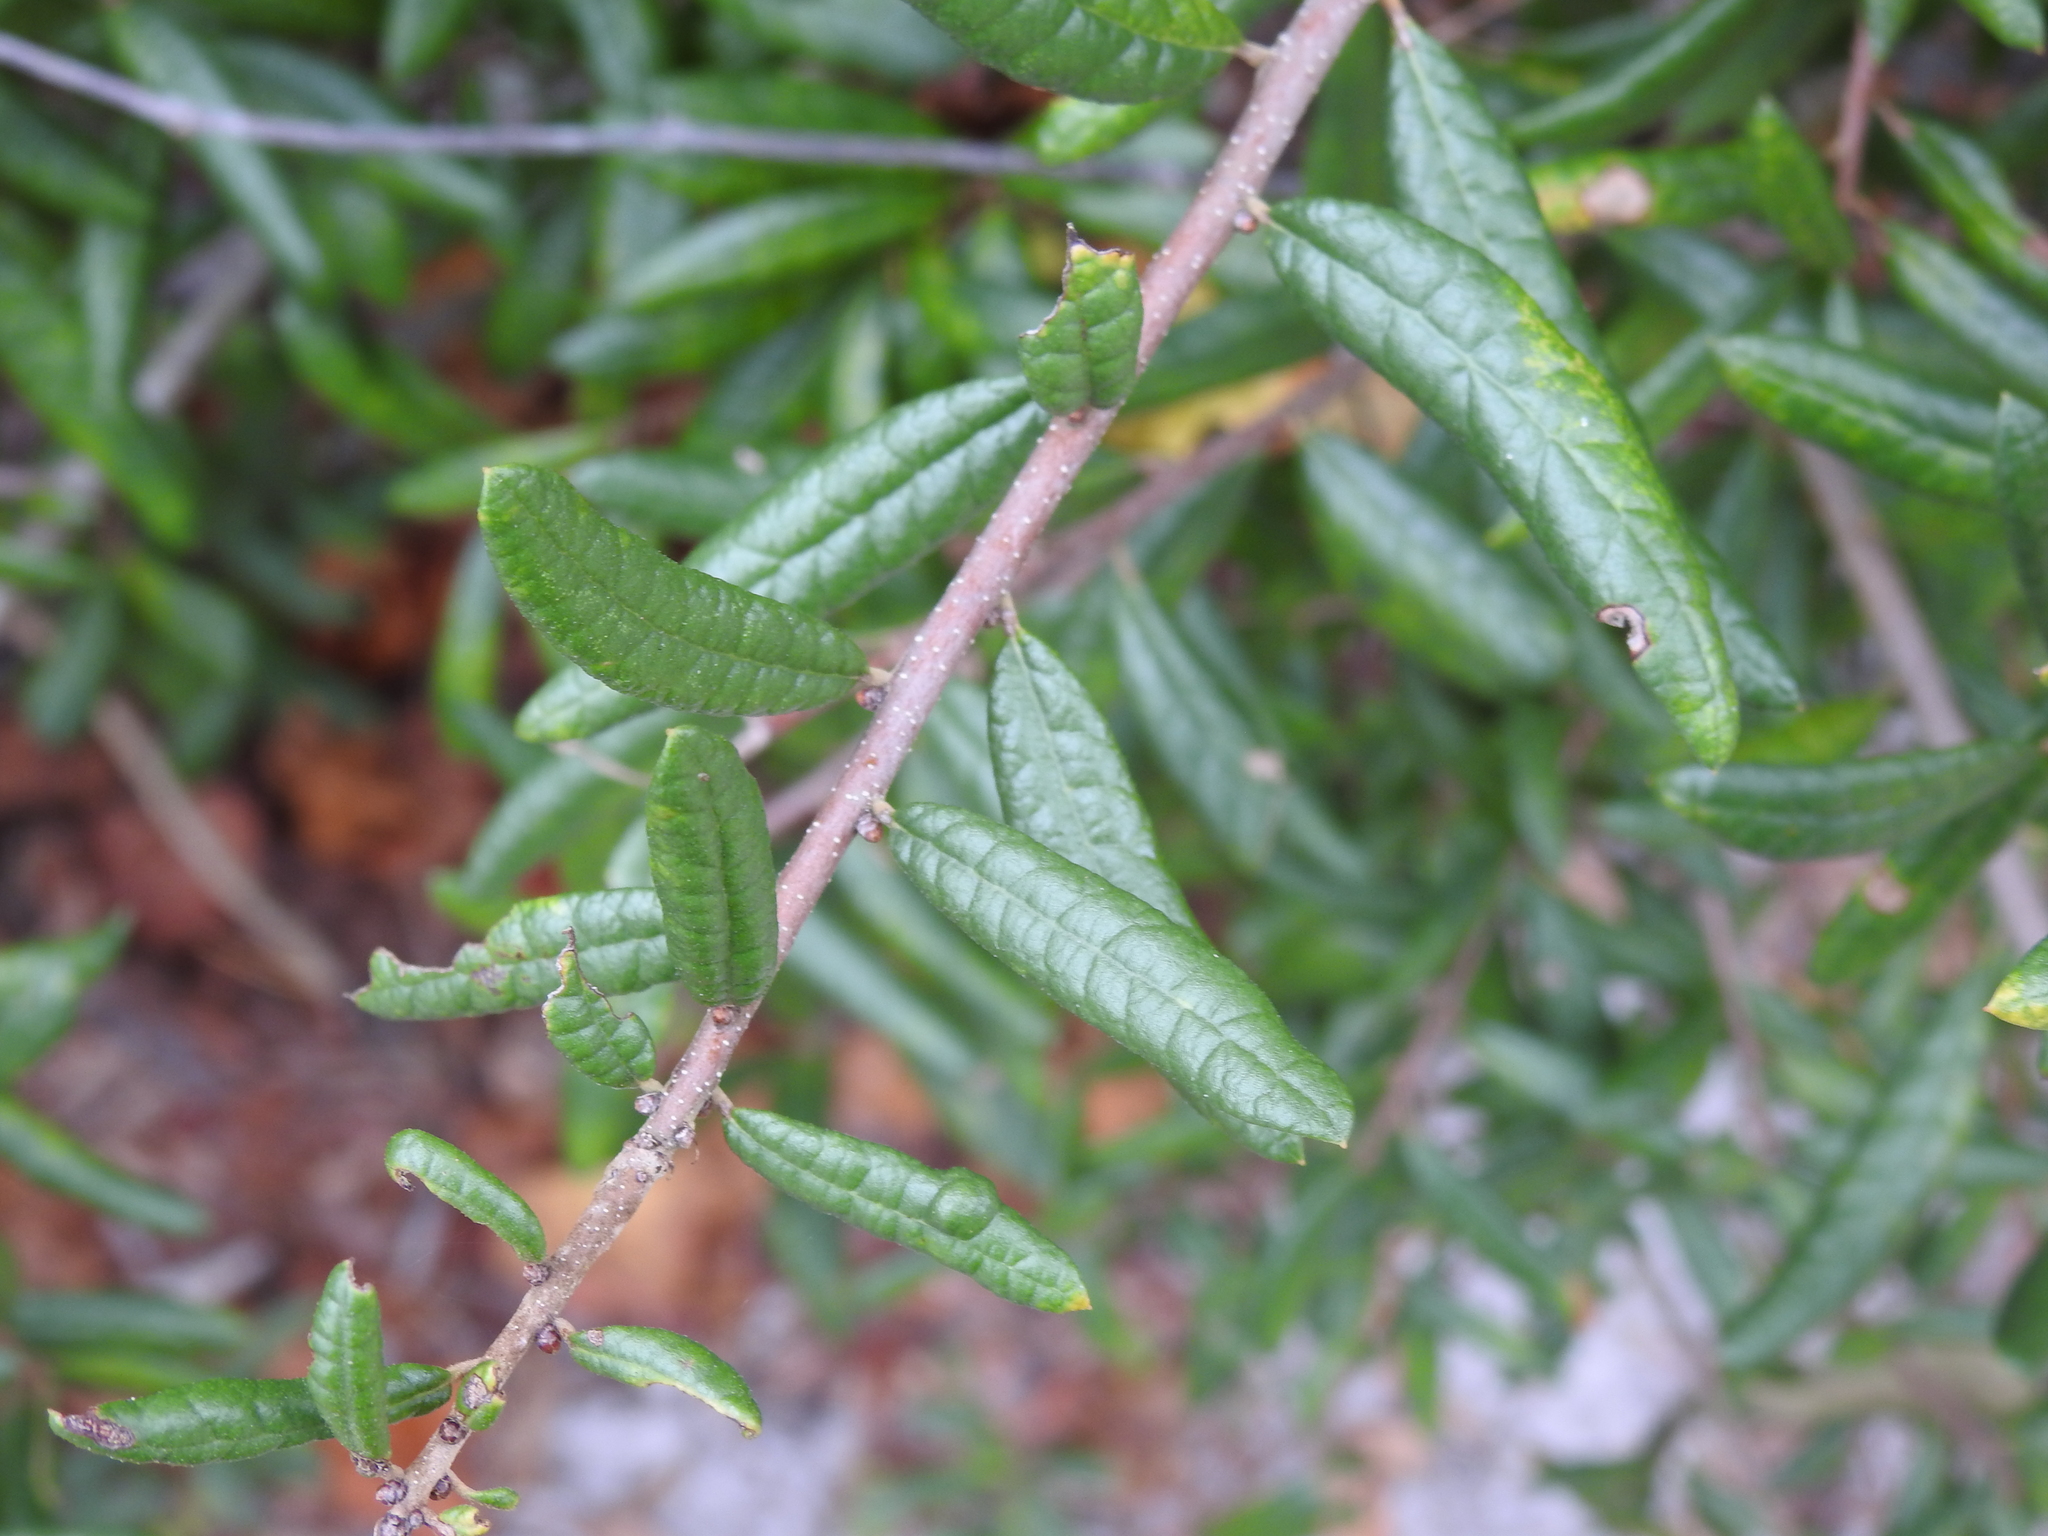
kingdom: Plantae
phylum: Tracheophyta
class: Magnoliopsida
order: Fagales
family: Fagaceae
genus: Quercus
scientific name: Quercus geminata
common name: Sand live oak
